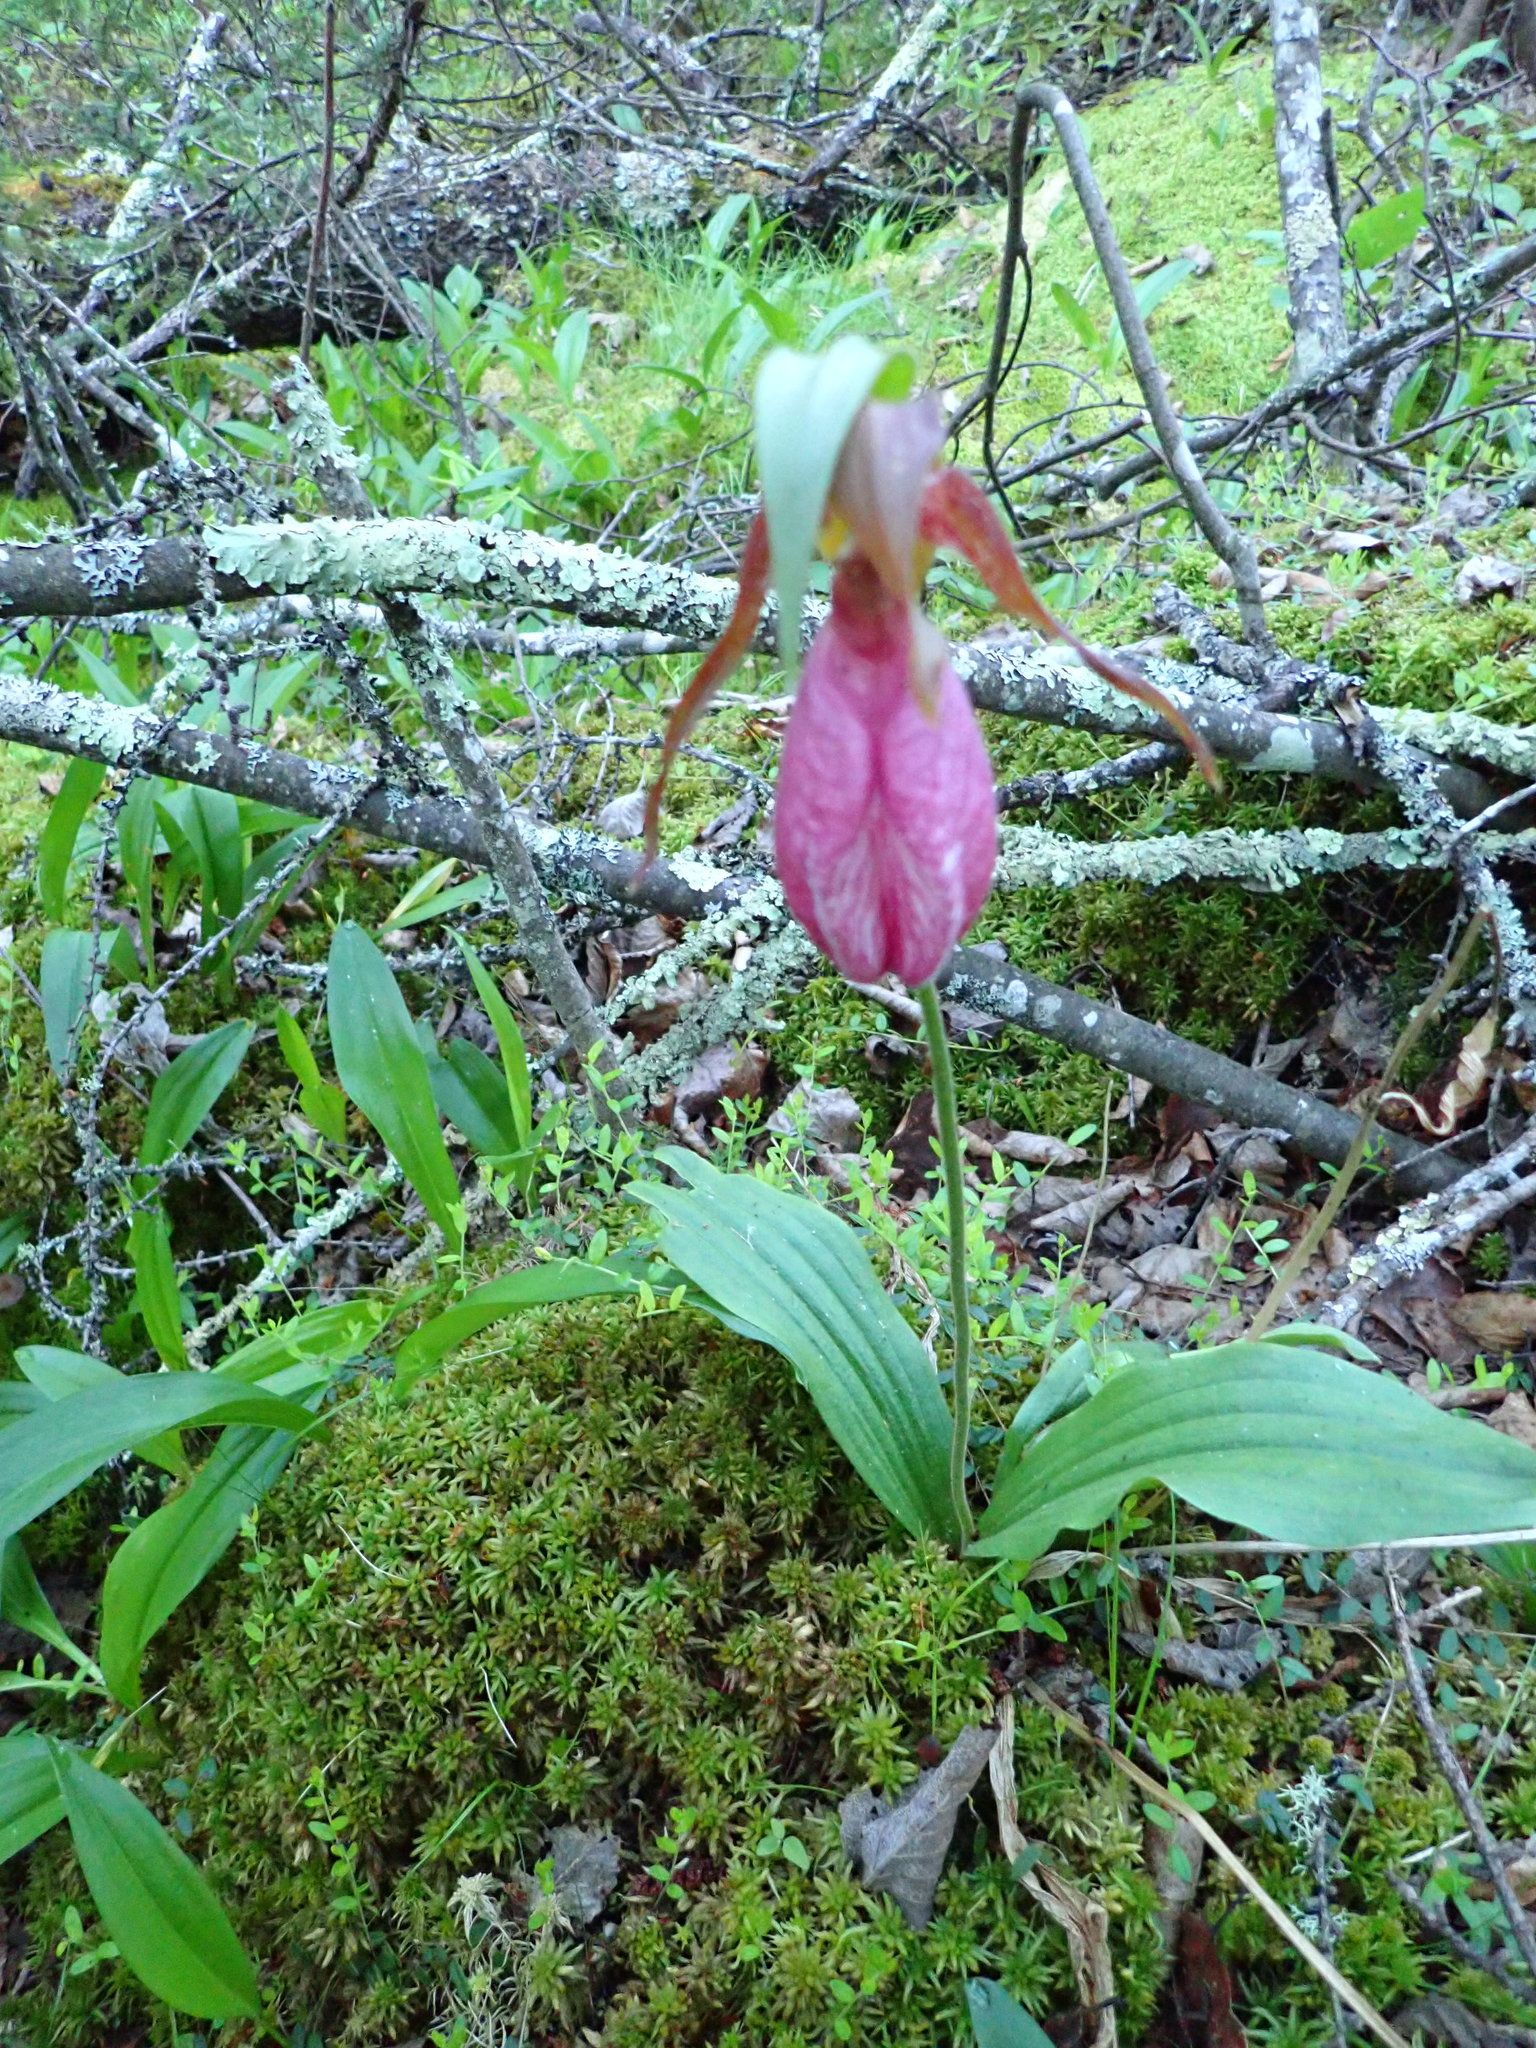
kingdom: Plantae
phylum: Tracheophyta
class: Liliopsida
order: Asparagales
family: Orchidaceae
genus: Cypripedium
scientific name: Cypripedium acaule
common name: Pink lady's-slipper
